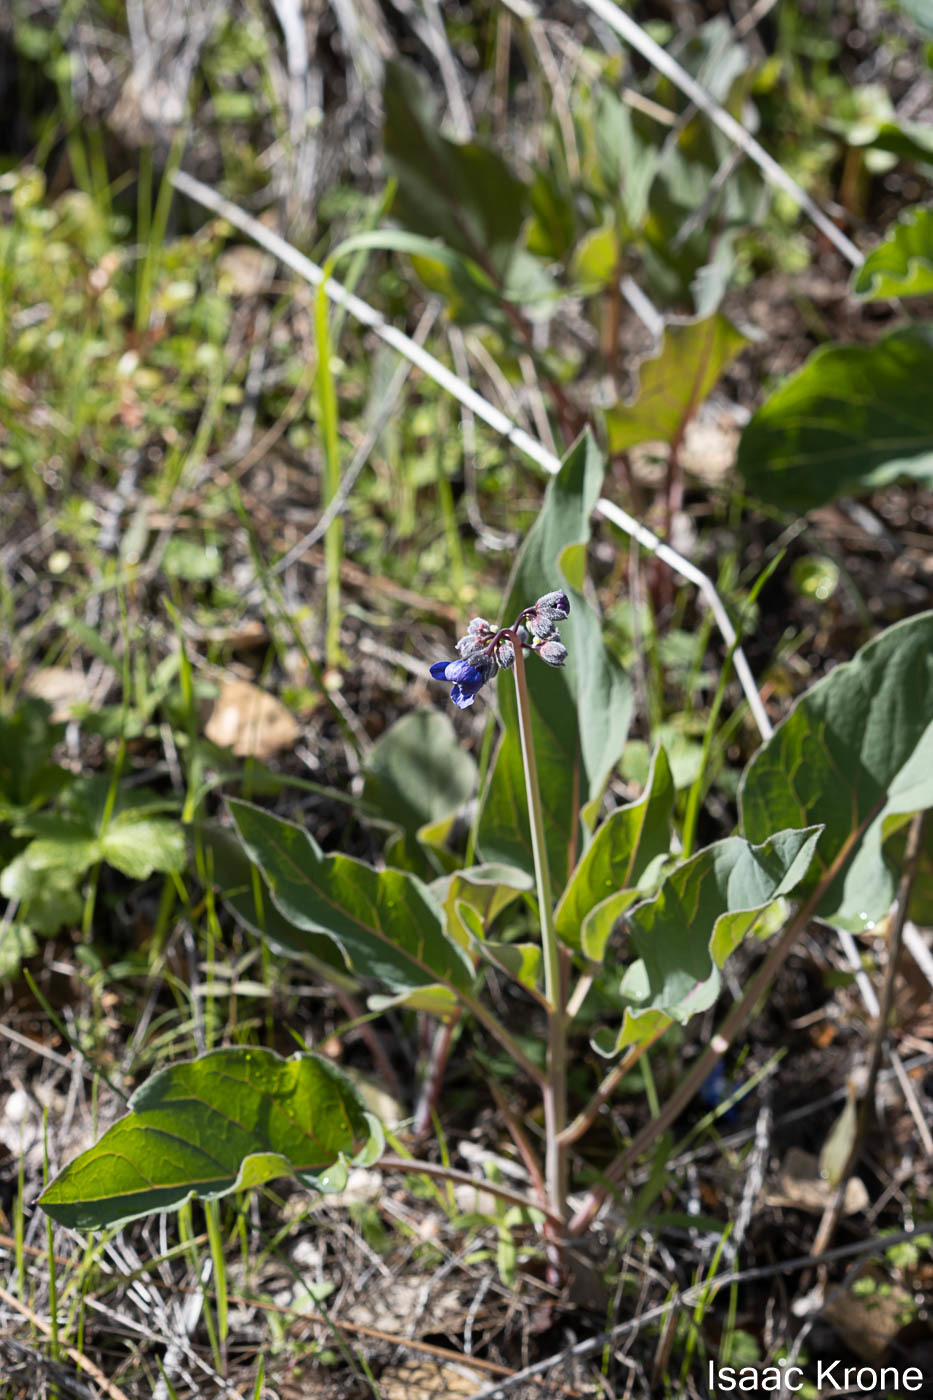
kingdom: Plantae
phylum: Tracheophyta
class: Magnoliopsida
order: Boraginales
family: Boraginaceae
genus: Adelinia
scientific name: Adelinia grande
